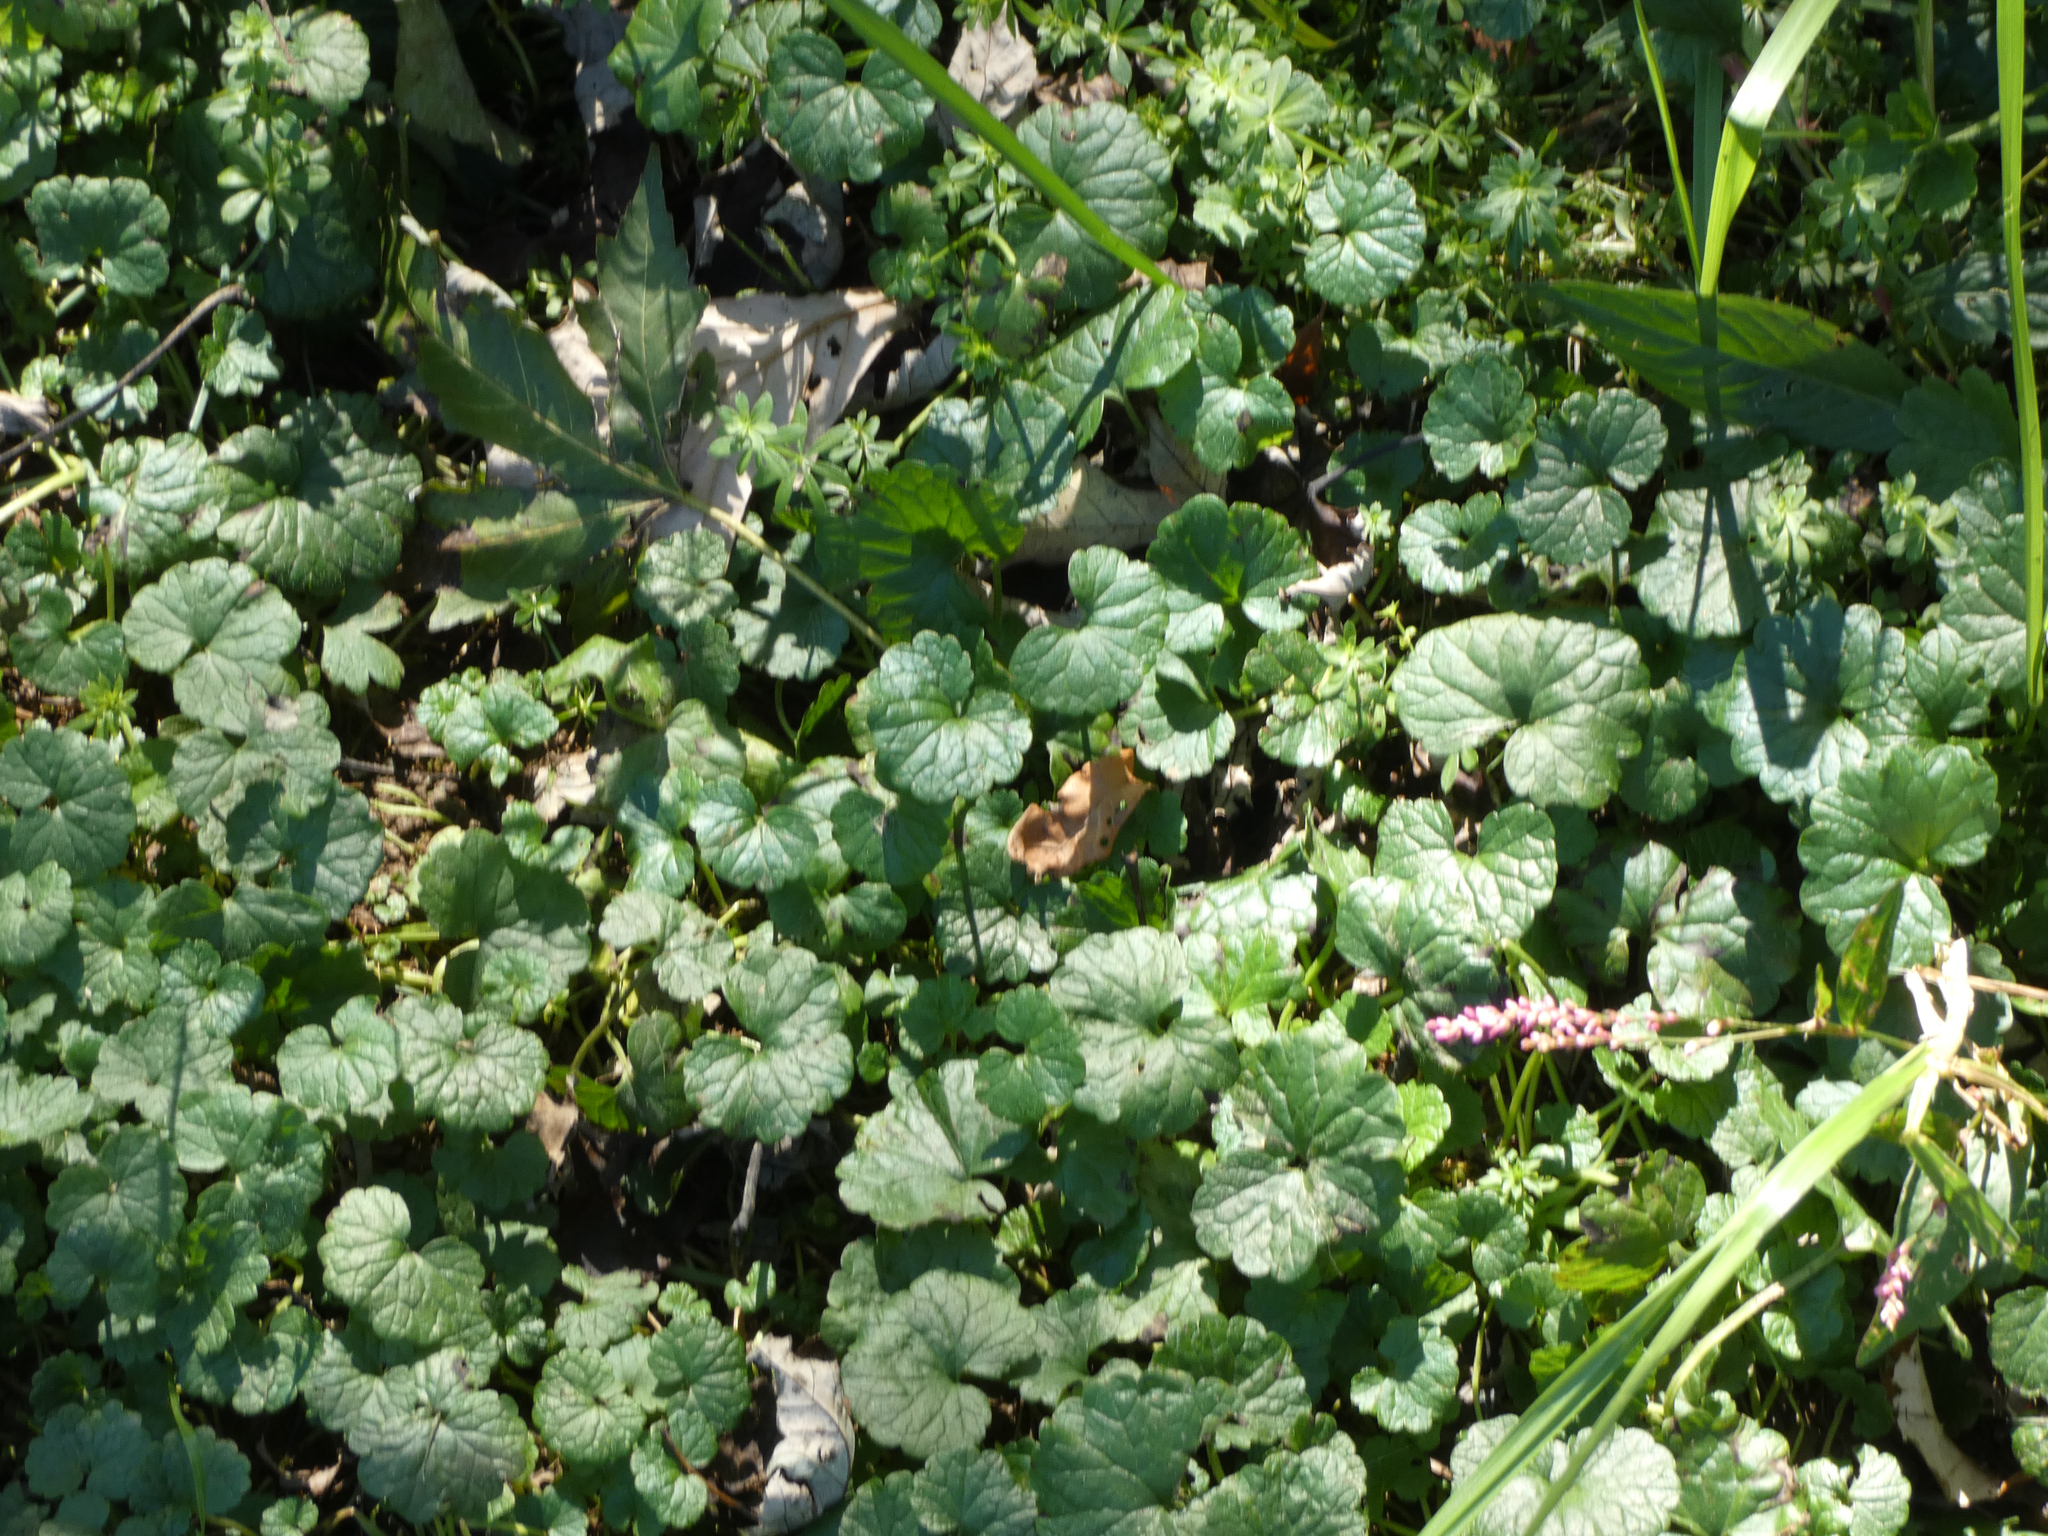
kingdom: Plantae
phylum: Tracheophyta
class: Magnoliopsida
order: Lamiales
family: Lamiaceae
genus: Glechoma
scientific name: Glechoma hederacea
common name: Ground ivy
